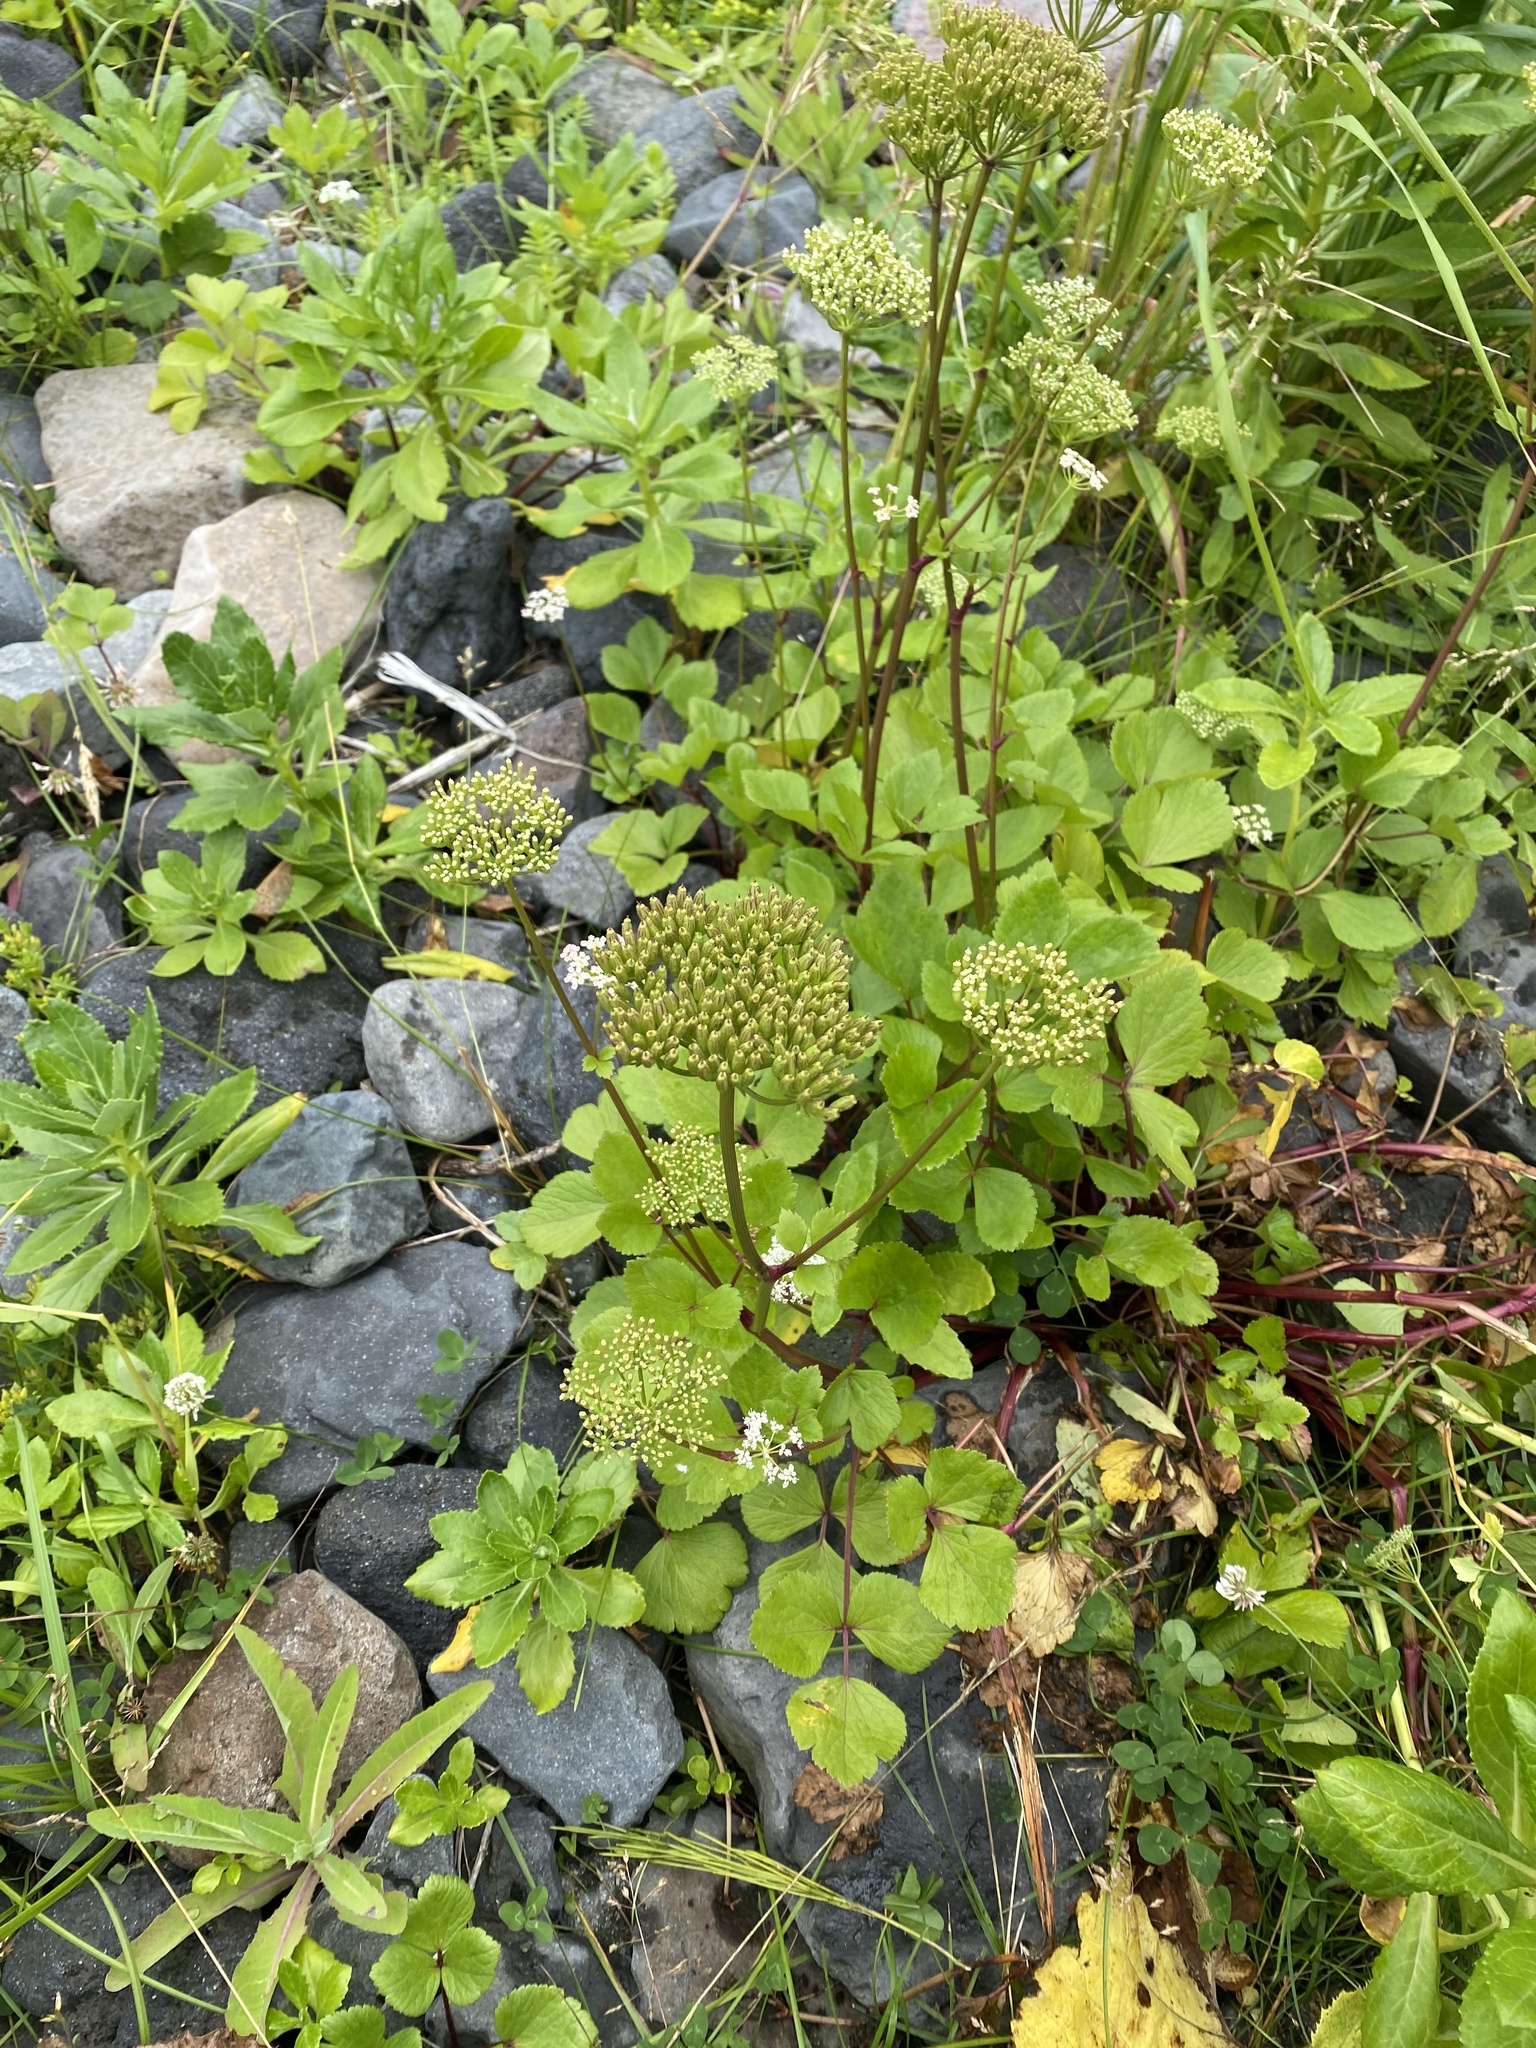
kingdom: Plantae
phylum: Tracheophyta
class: Magnoliopsida
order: Apiales
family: Apiaceae
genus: Ligusticum
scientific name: Ligusticum scothicum
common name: Beach lovage
